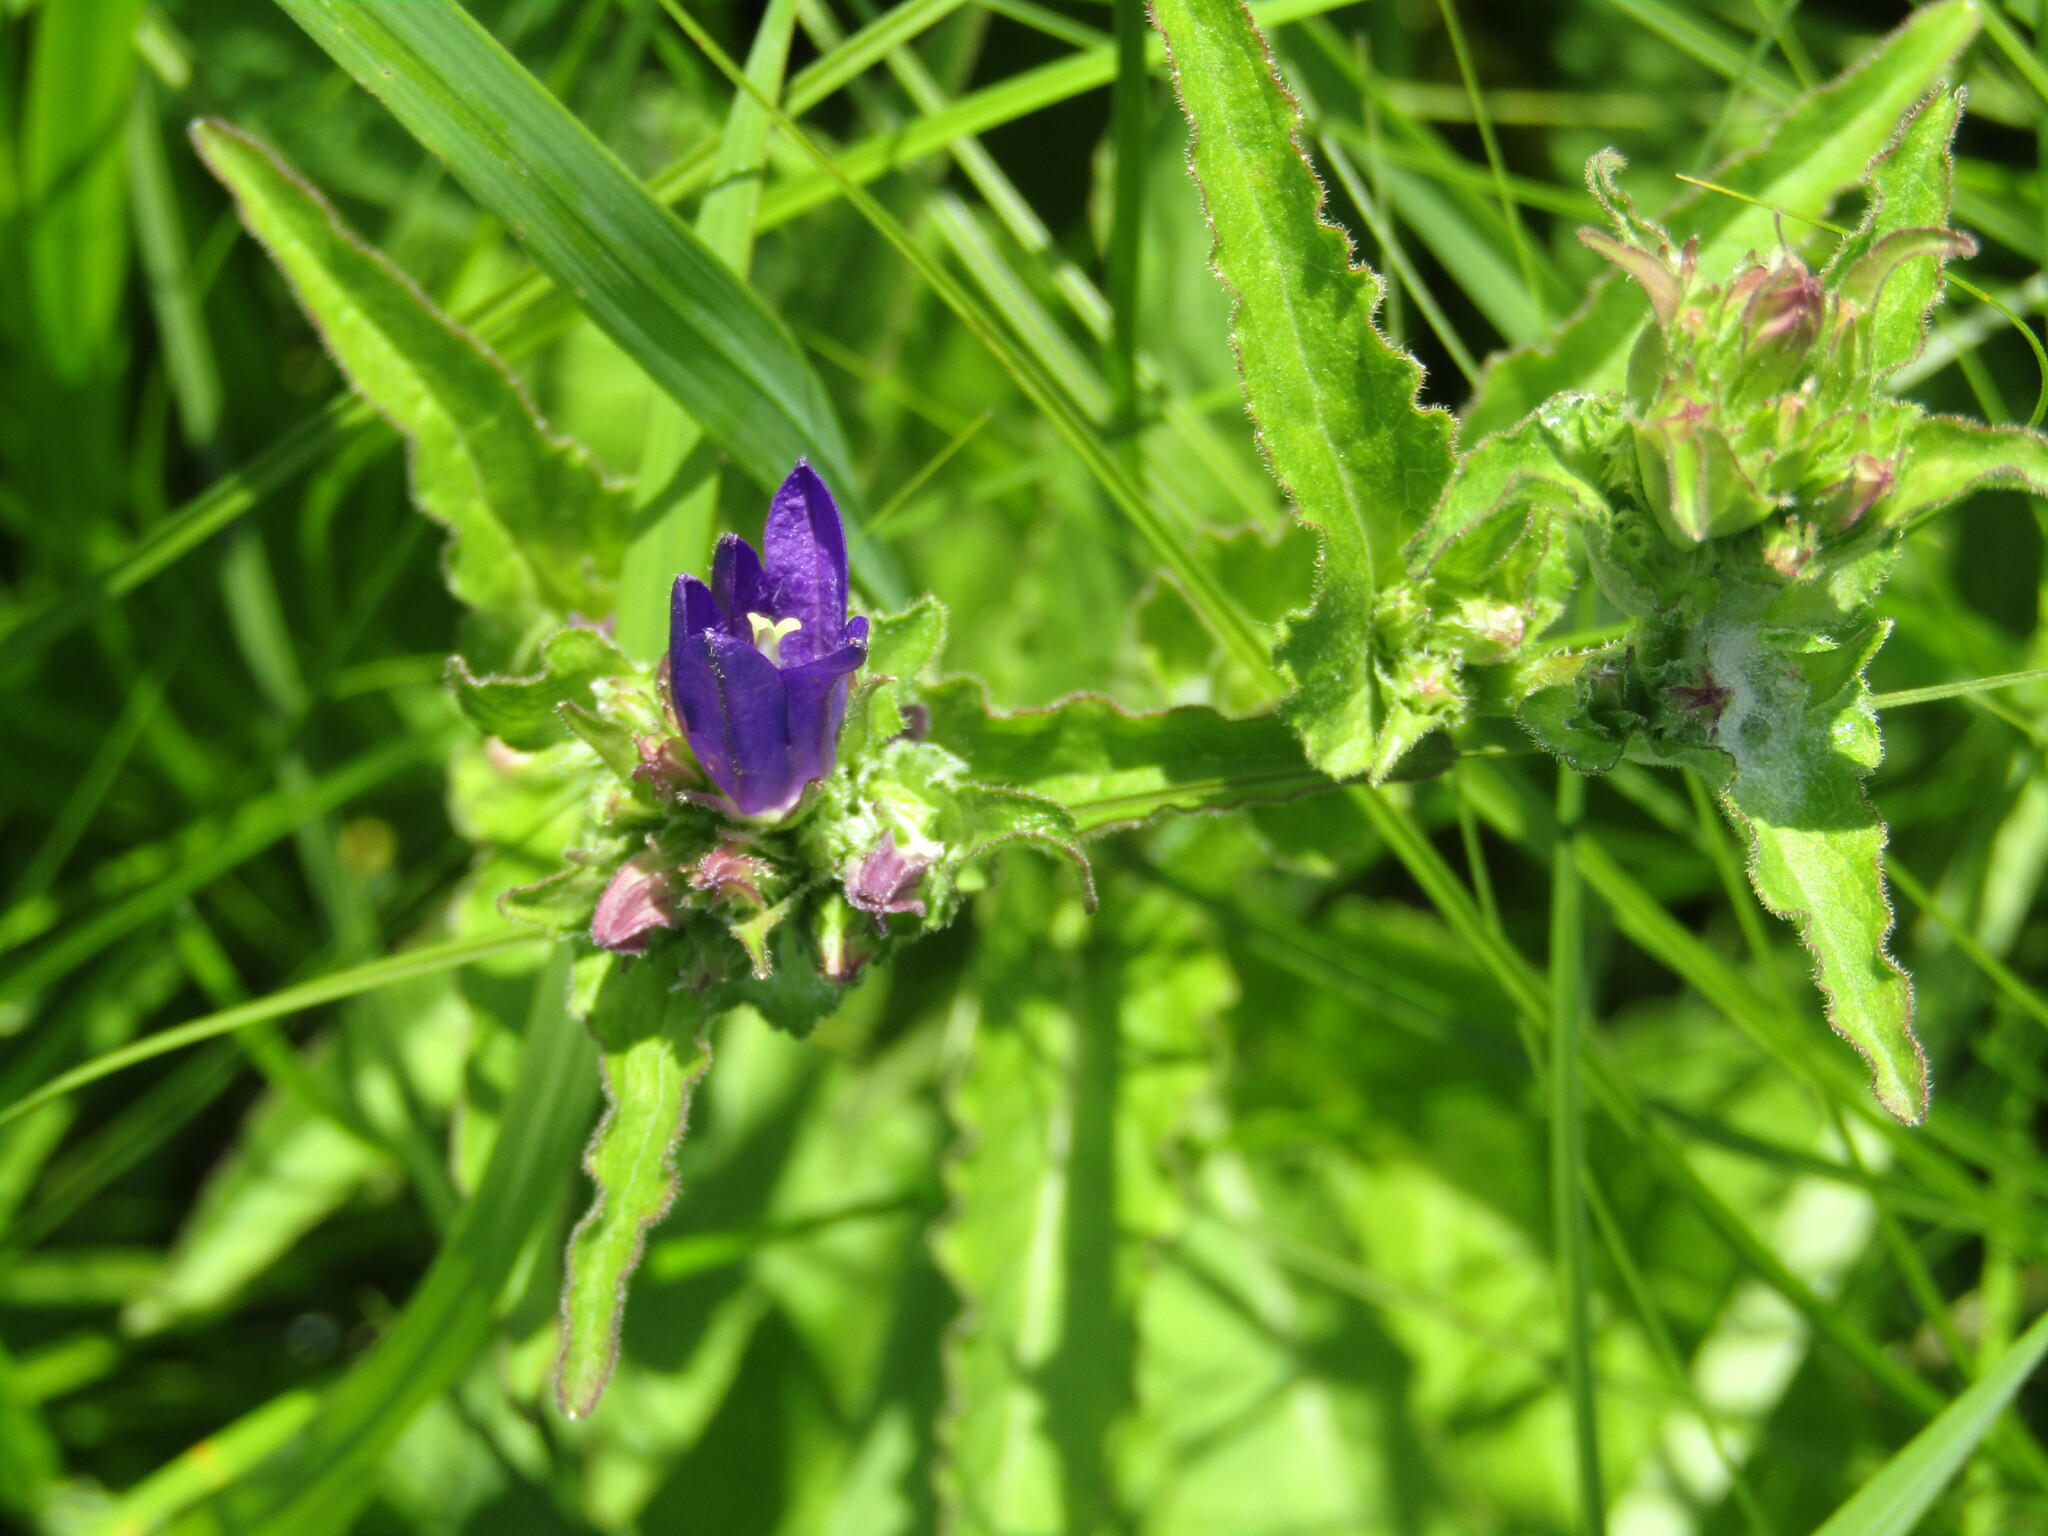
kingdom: Plantae
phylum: Tracheophyta
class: Magnoliopsida
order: Asterales
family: Campanulaceae
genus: Campanula
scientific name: Campanula glomerata
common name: Clustered bellflower
